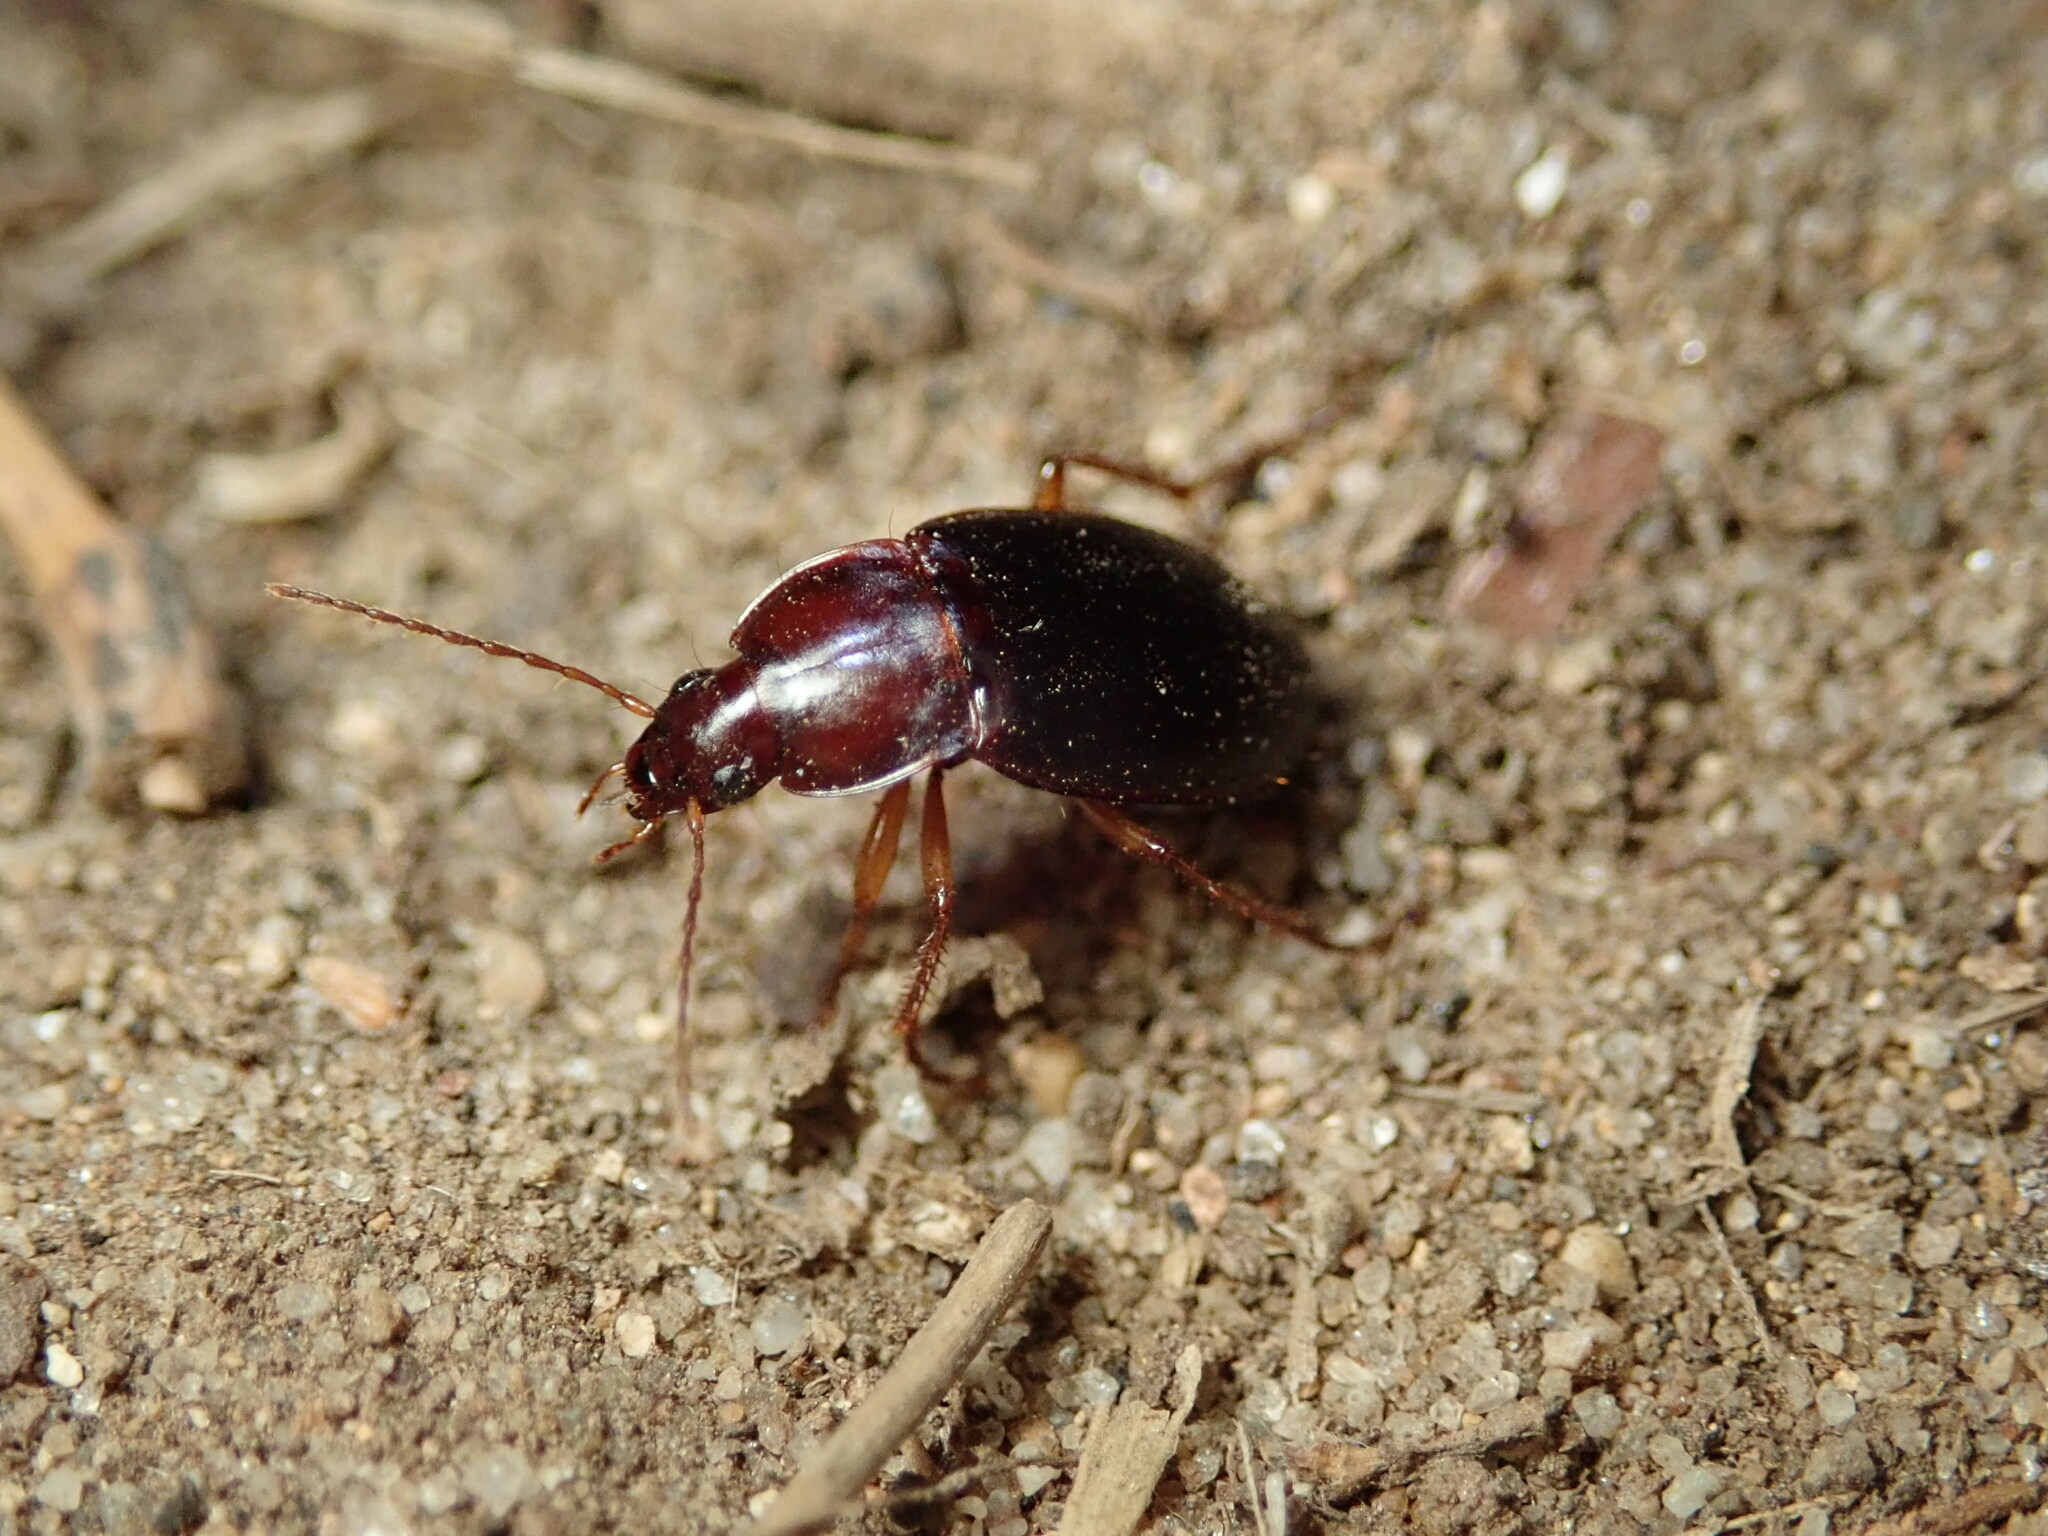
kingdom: Animalia
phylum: Arthropoda
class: Insecta
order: Coleoptera
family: Carabidae
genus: Calathus
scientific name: Calathus ruficollis
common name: Red-collared harp ground beetle
